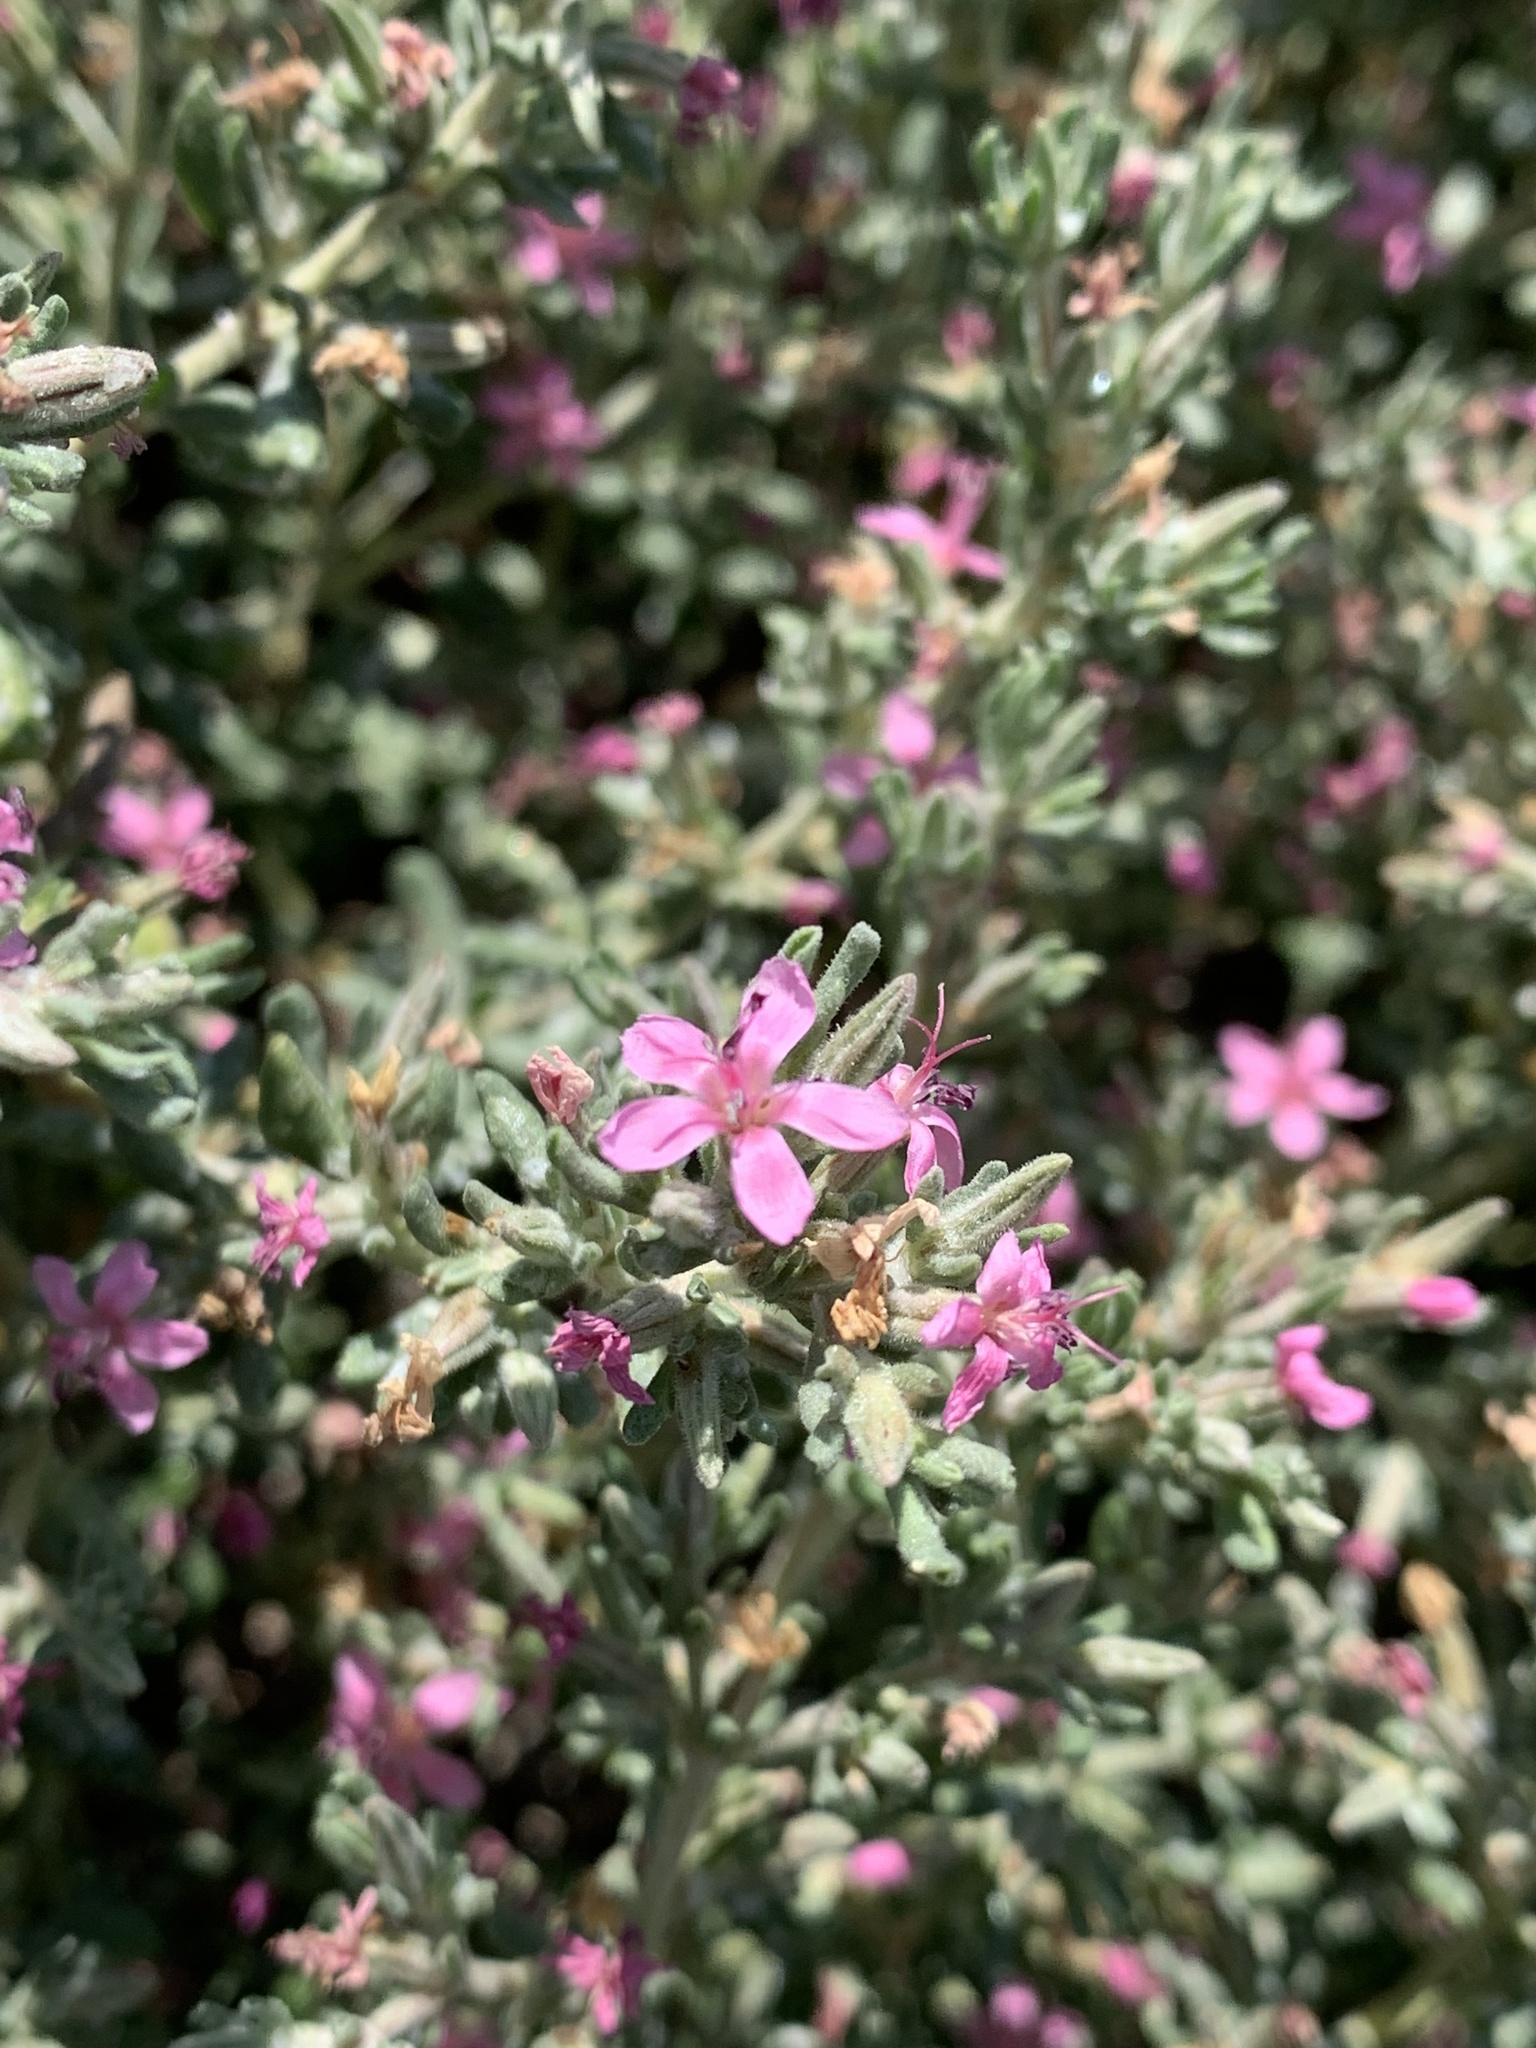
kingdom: Plantae
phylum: Tracheophyta
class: Magnoliopsida
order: Caryophyllales
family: Frankeniaceae
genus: Frankenia
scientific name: Frankenia salina
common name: Alkali seaheath
